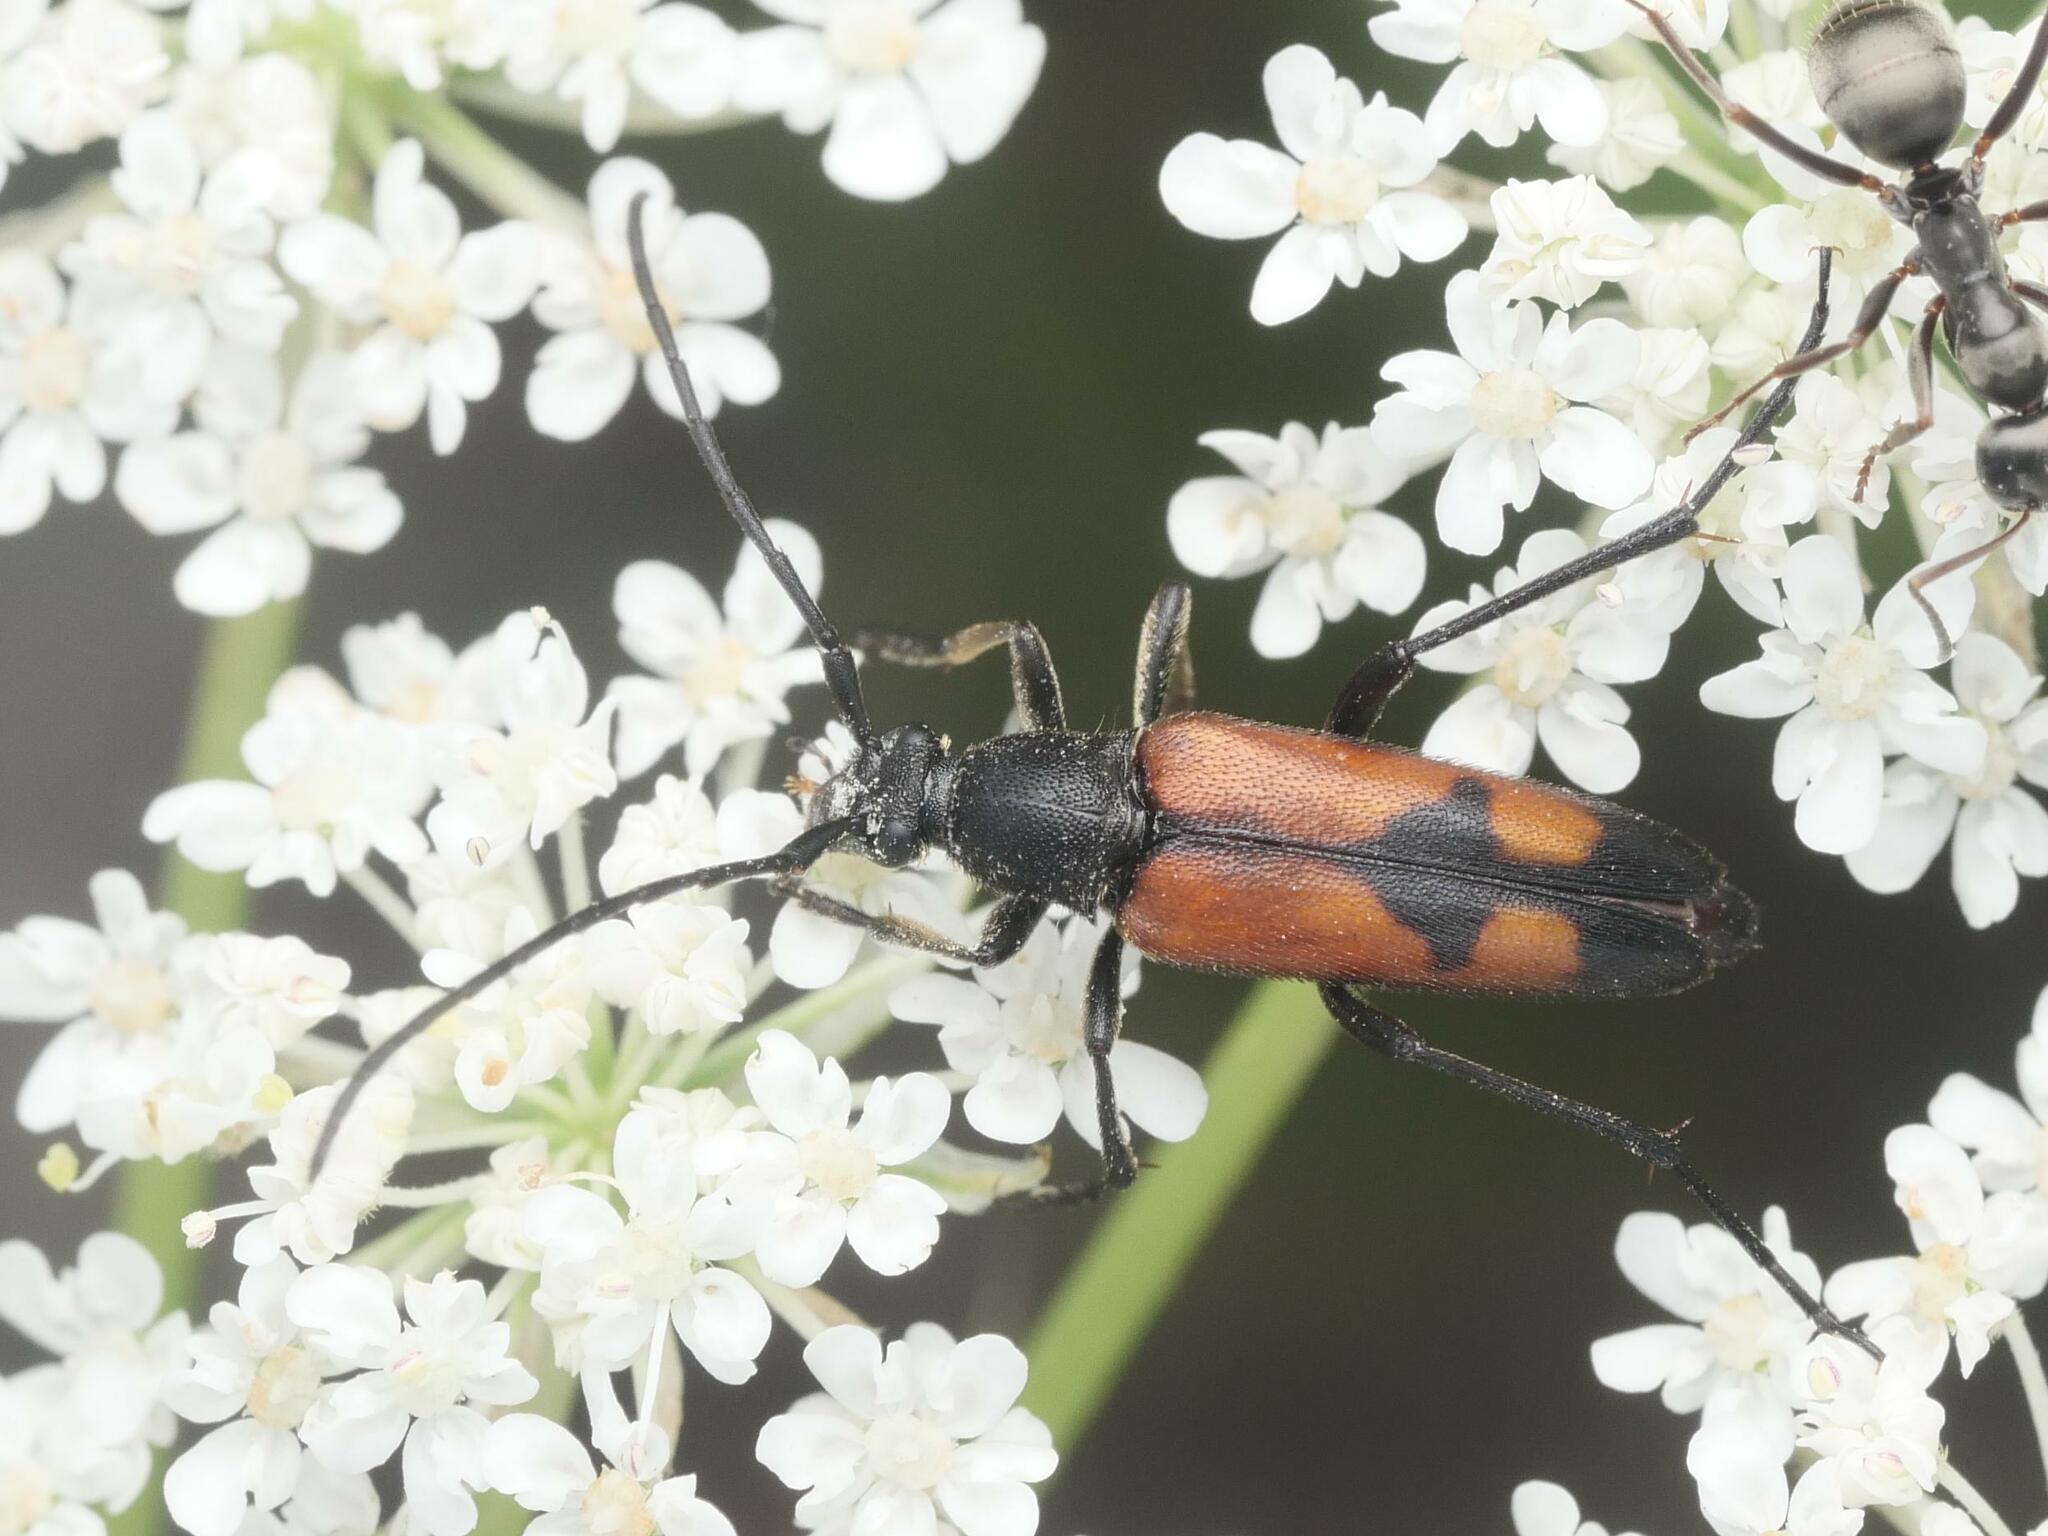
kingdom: Animalia
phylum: Arthropoda
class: Insecta
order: Coleoptera
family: Cerambycidae
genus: Stenurella
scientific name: Stenurella bifasciata
